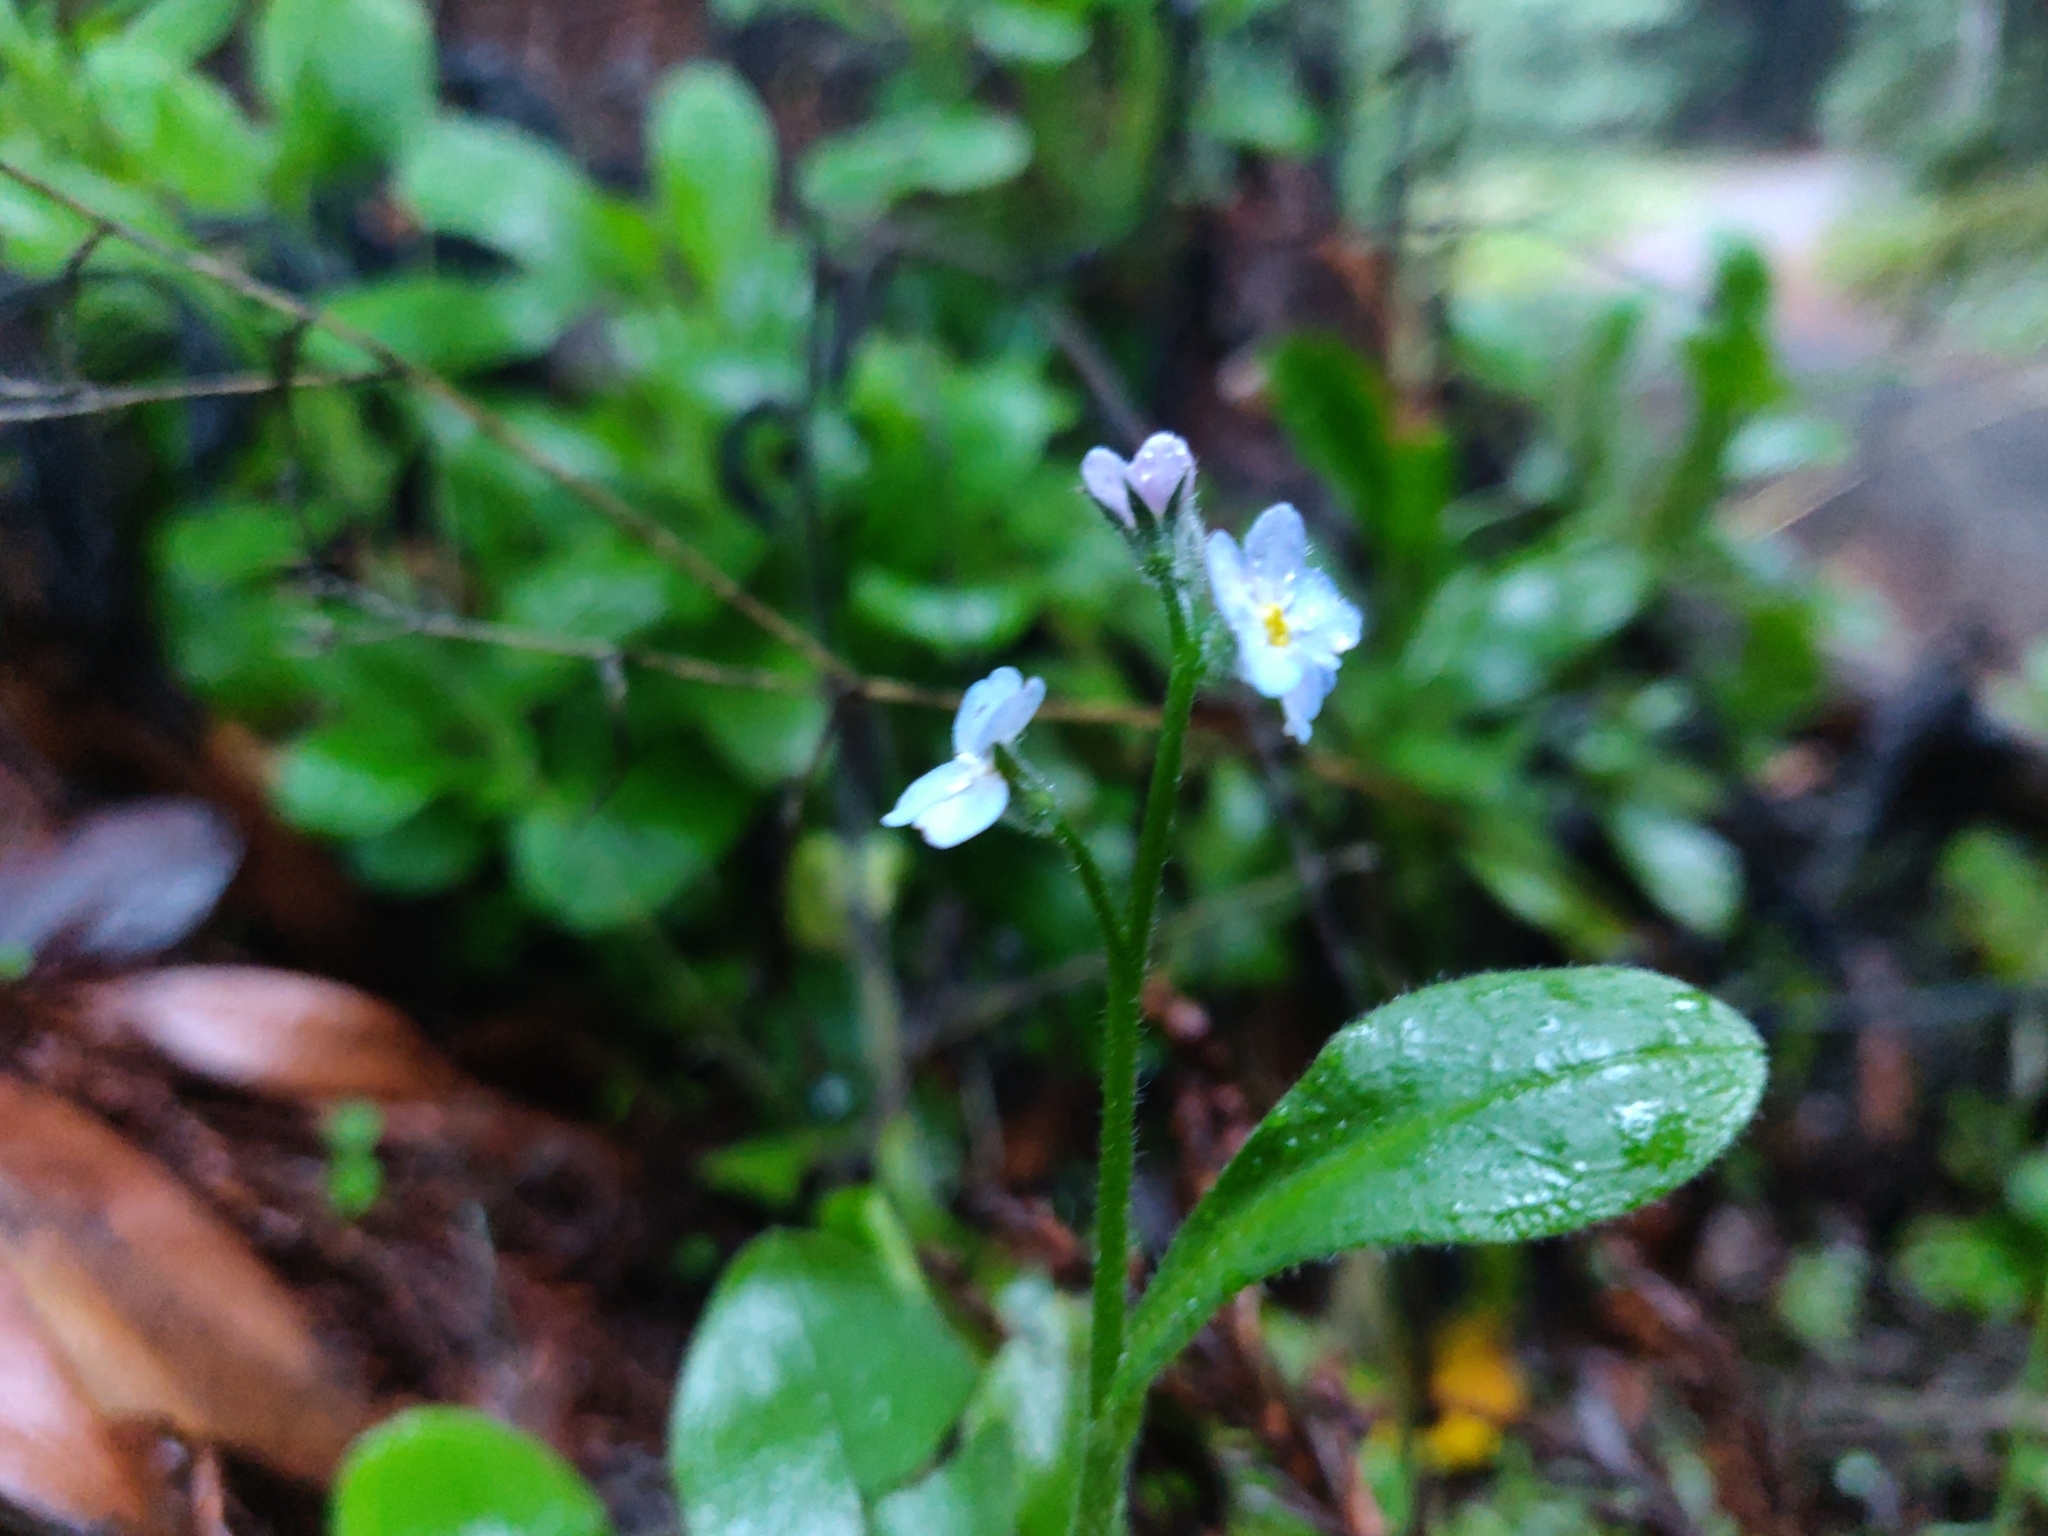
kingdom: Plantae
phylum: Tracheophyta
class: Magnoliopsida
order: Boraginales
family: Boraginaceae
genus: Myosotis
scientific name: Myosotis latifolia
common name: Broadleaf forget-me-not
